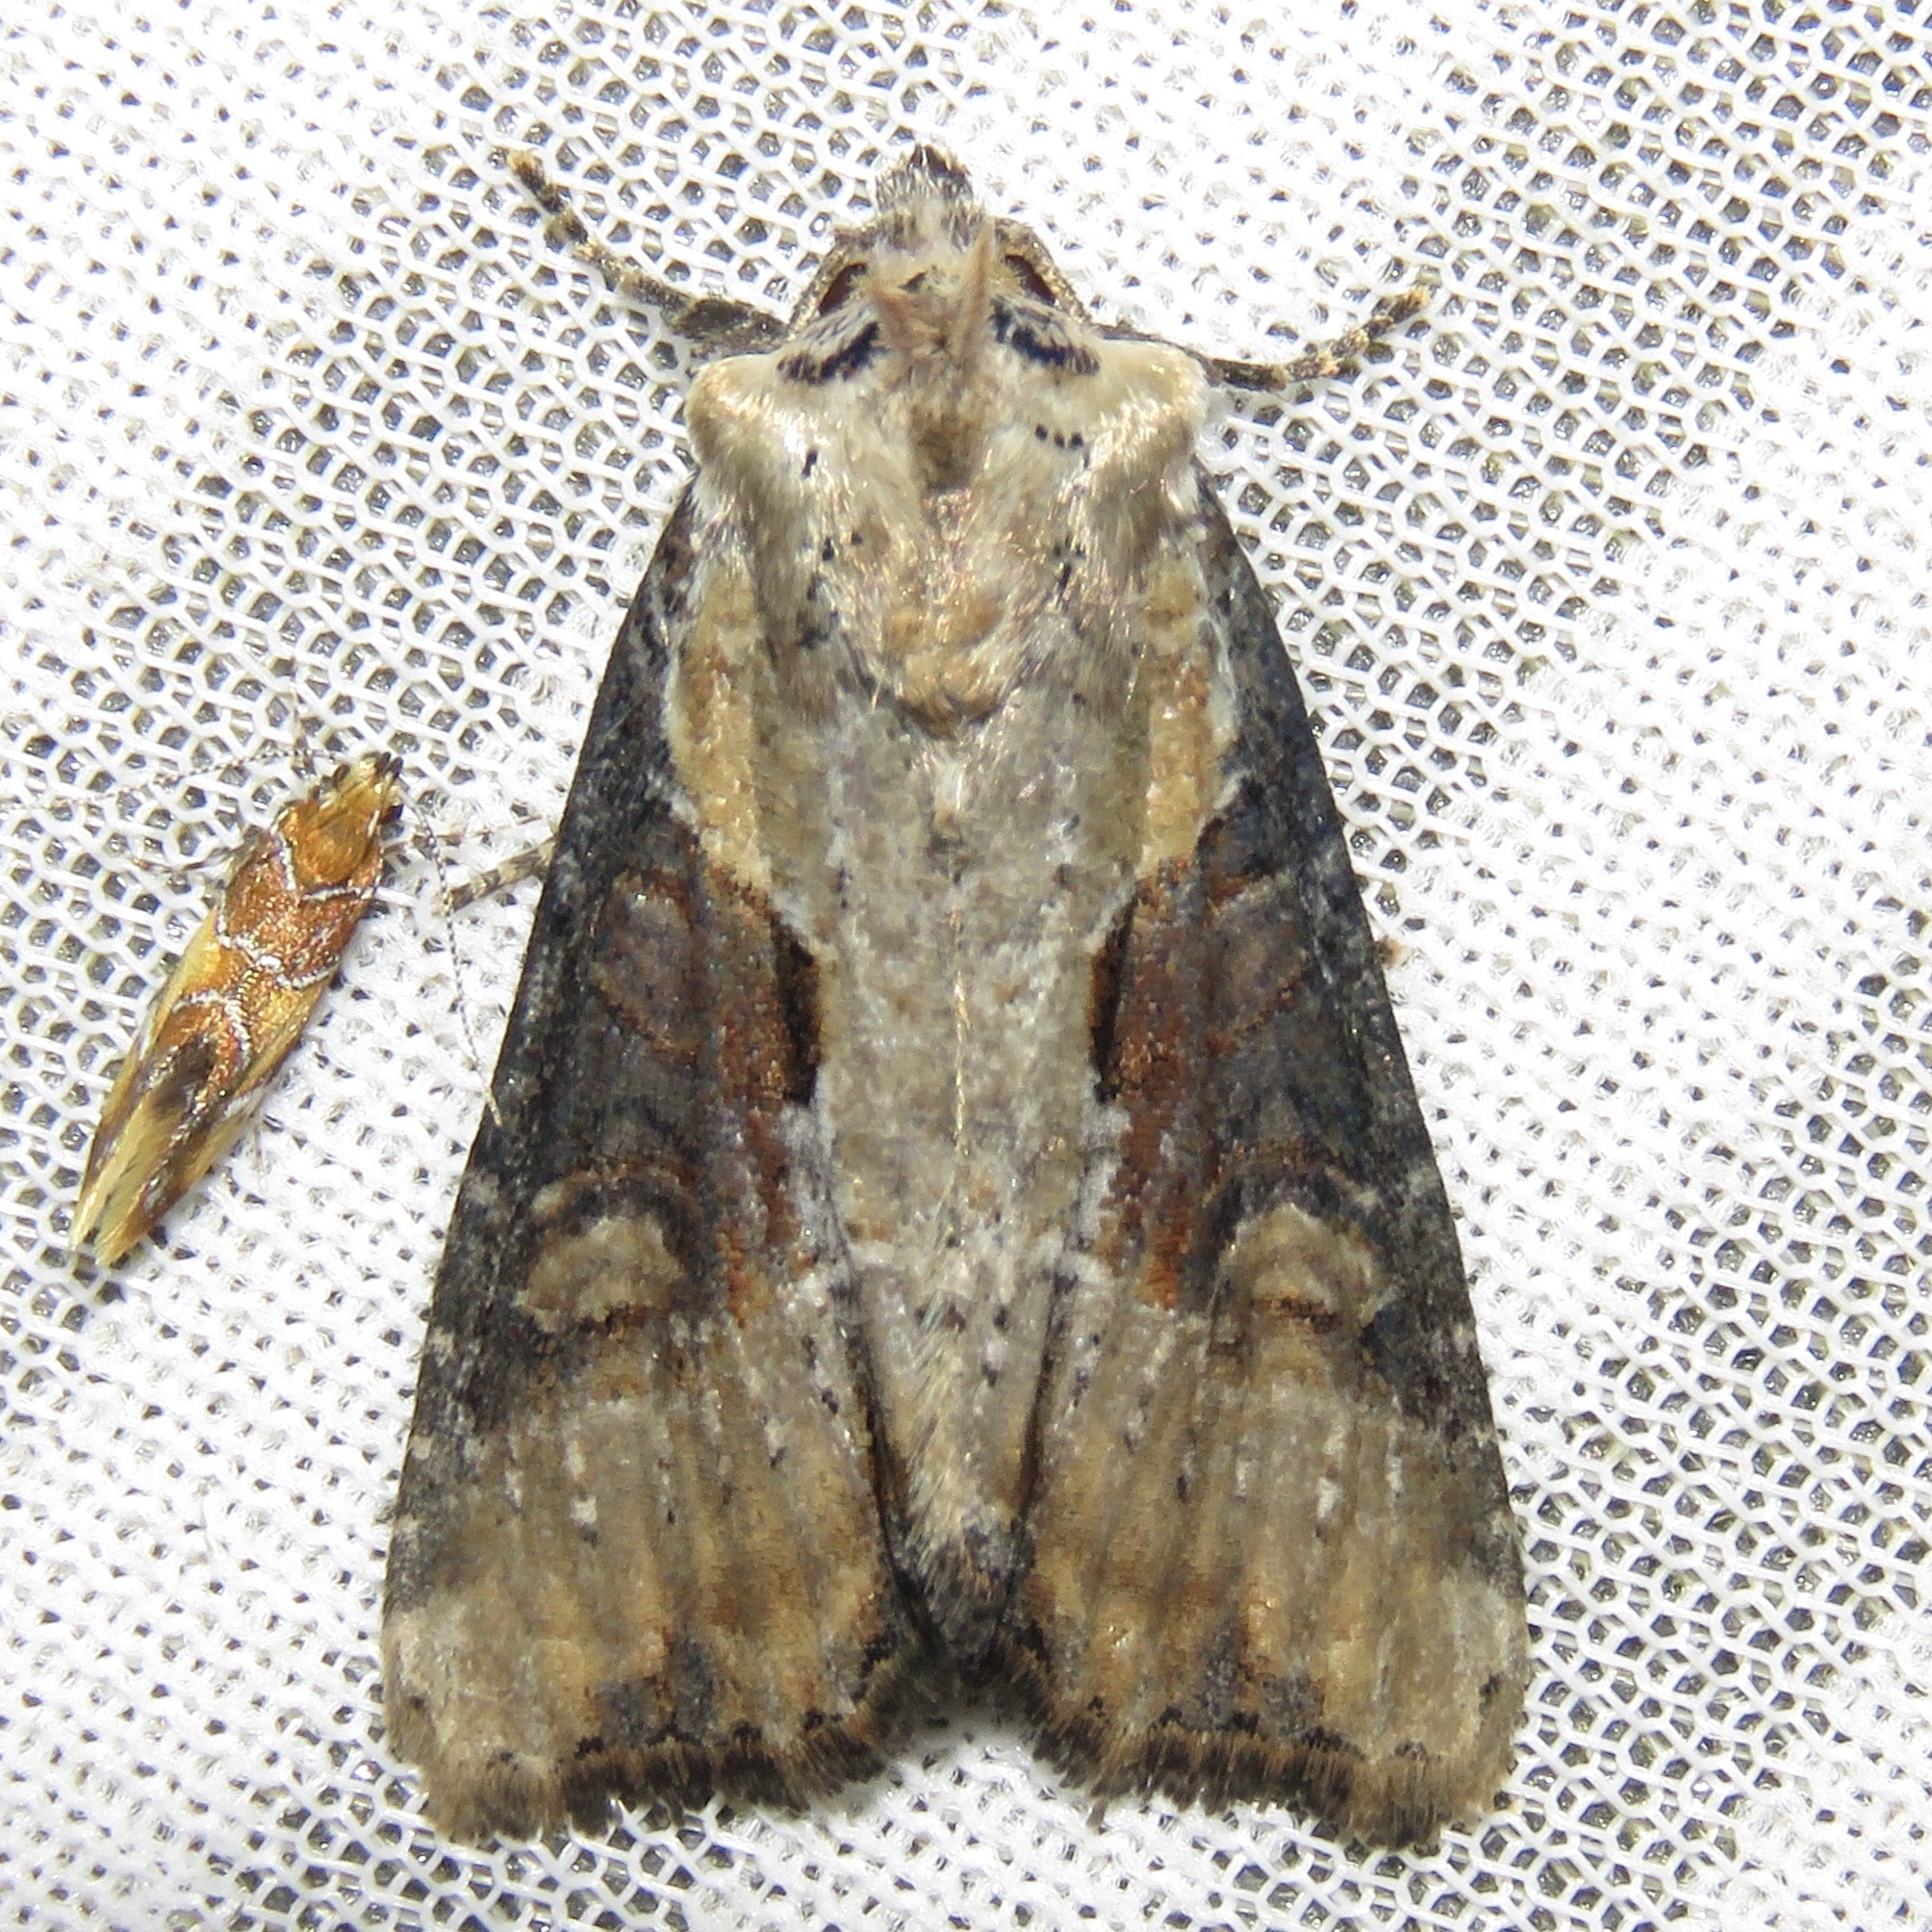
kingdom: Animalia
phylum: Arthropoda
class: Insecta
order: Lepidoptera
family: Noctuidae
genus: Lateroligia
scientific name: Lateroligia ophiogramma
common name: Double lobed
